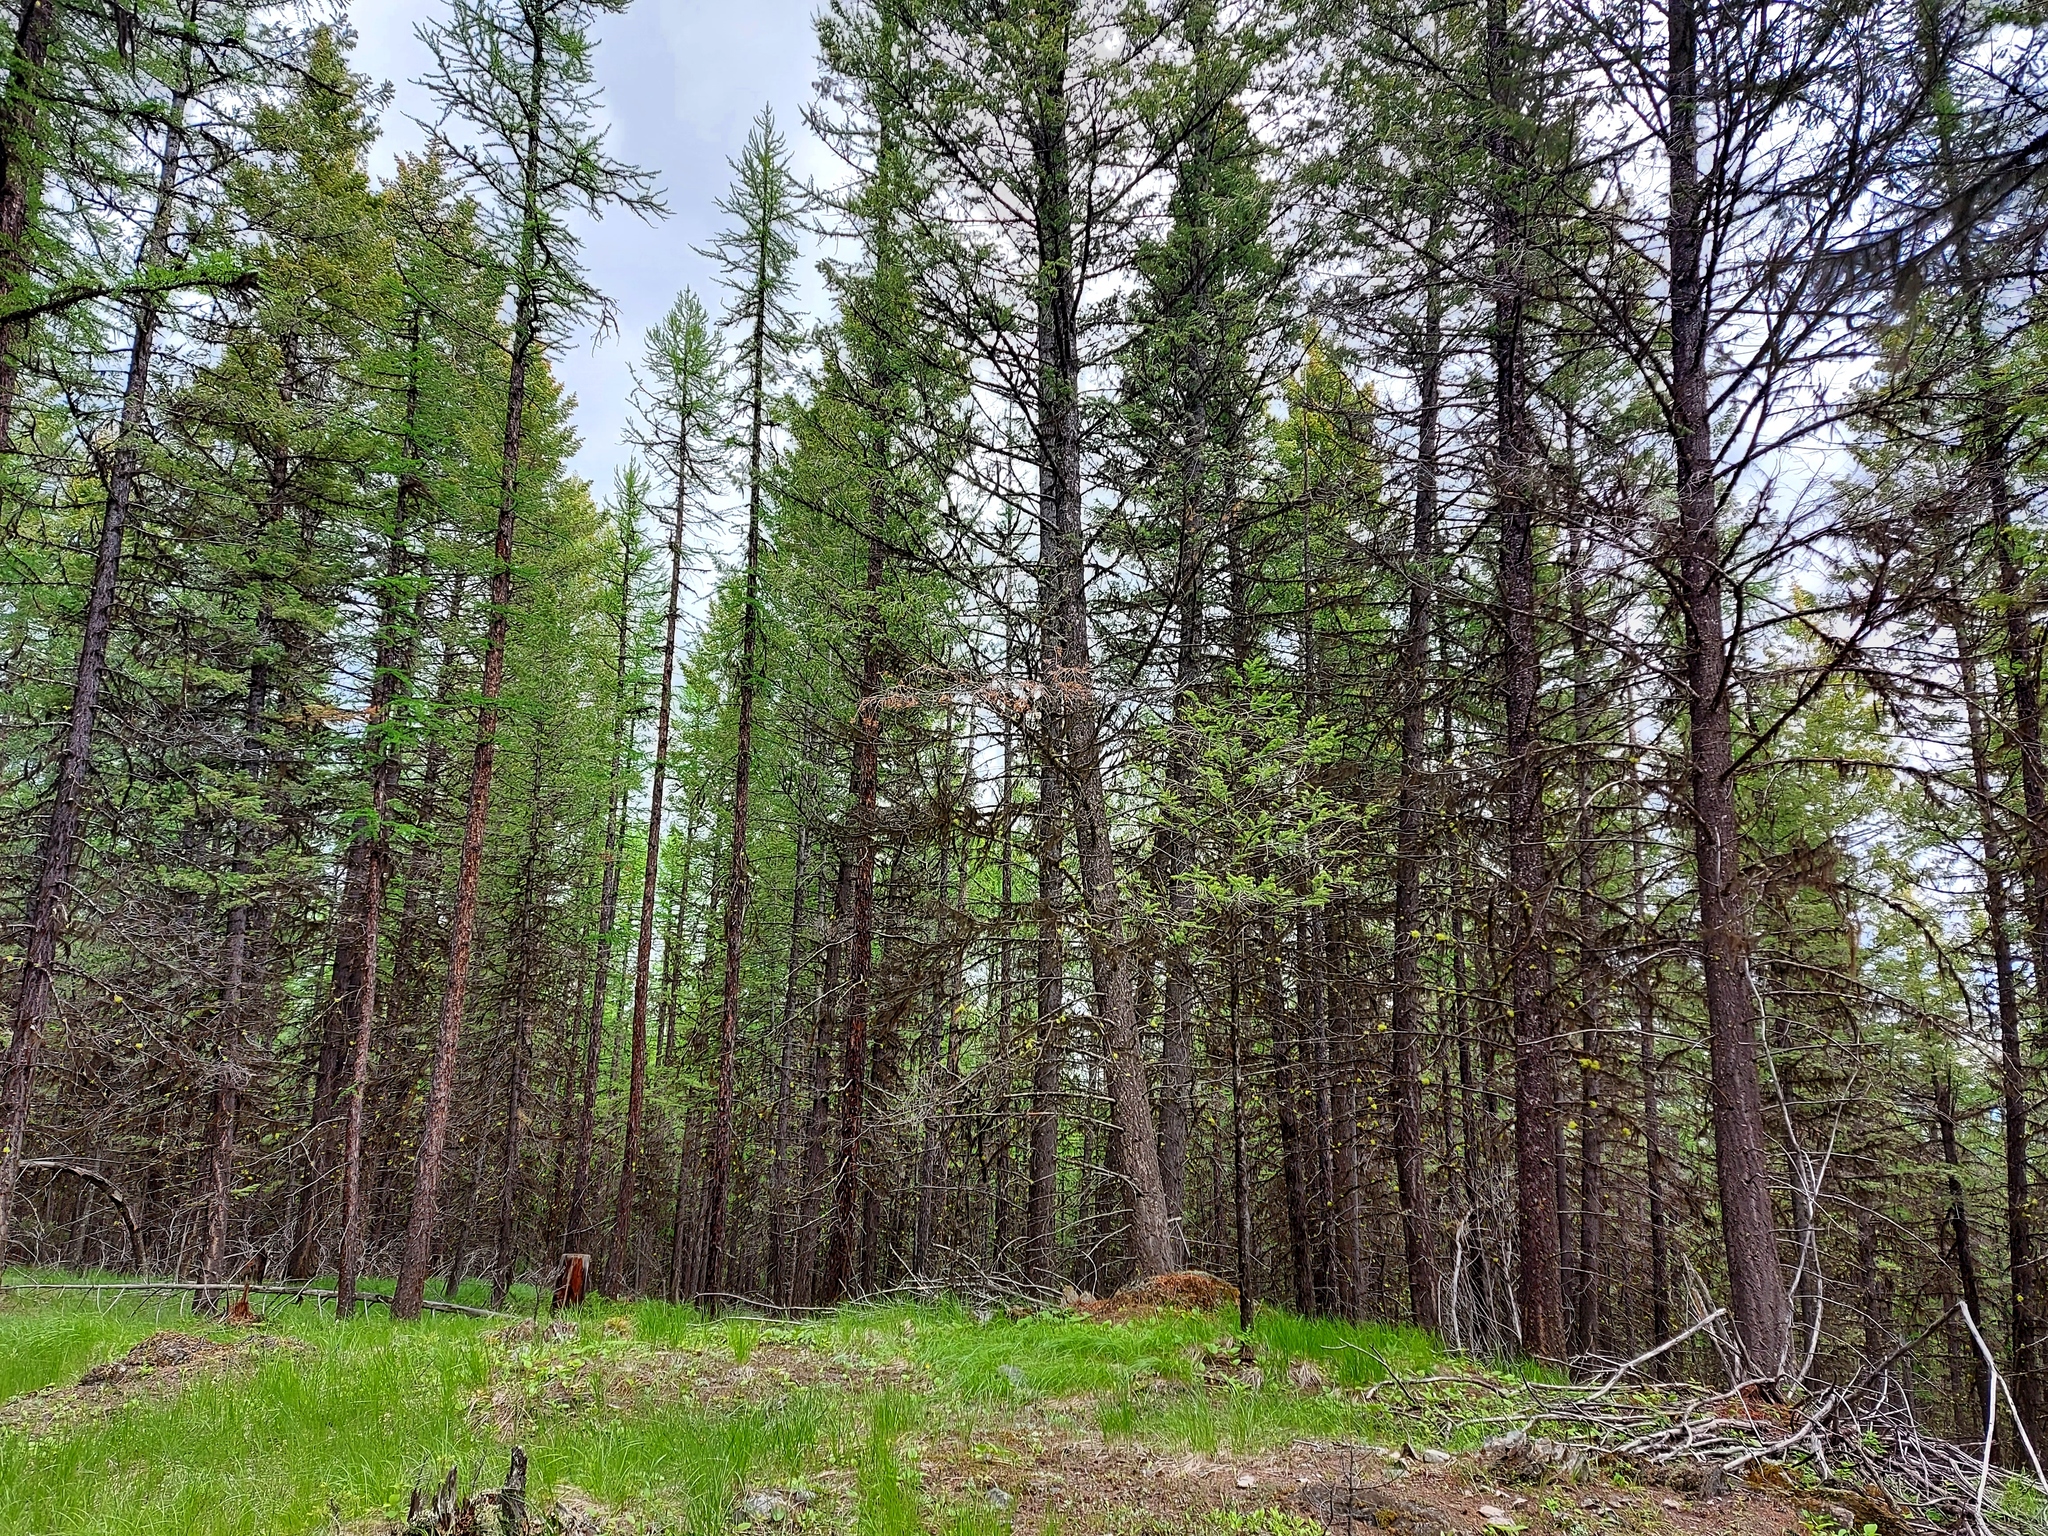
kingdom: Animalia
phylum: Chordata
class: Aves
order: Passeriformes
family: Vireonidae
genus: Vireo
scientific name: Vireo cassinii
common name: Cassin's vireo
